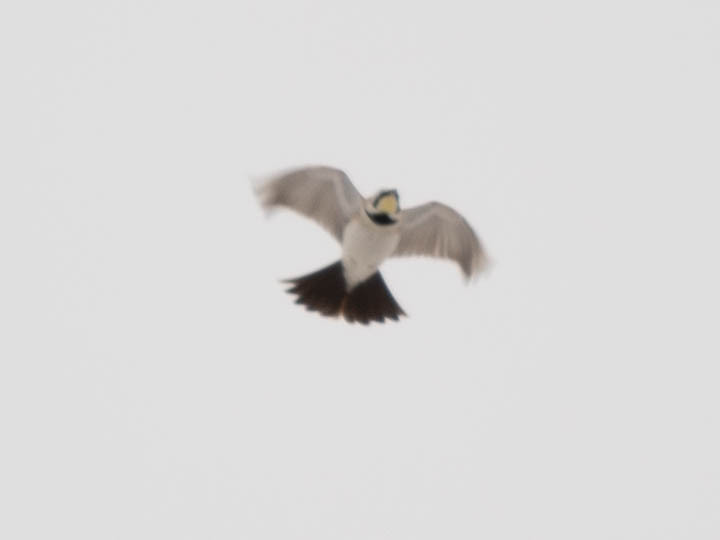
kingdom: Animalia
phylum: Chordata
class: Aves
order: Passeriformes
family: Alaudidae
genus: Eremophila
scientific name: Eremophila alpestris
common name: Horned lark
